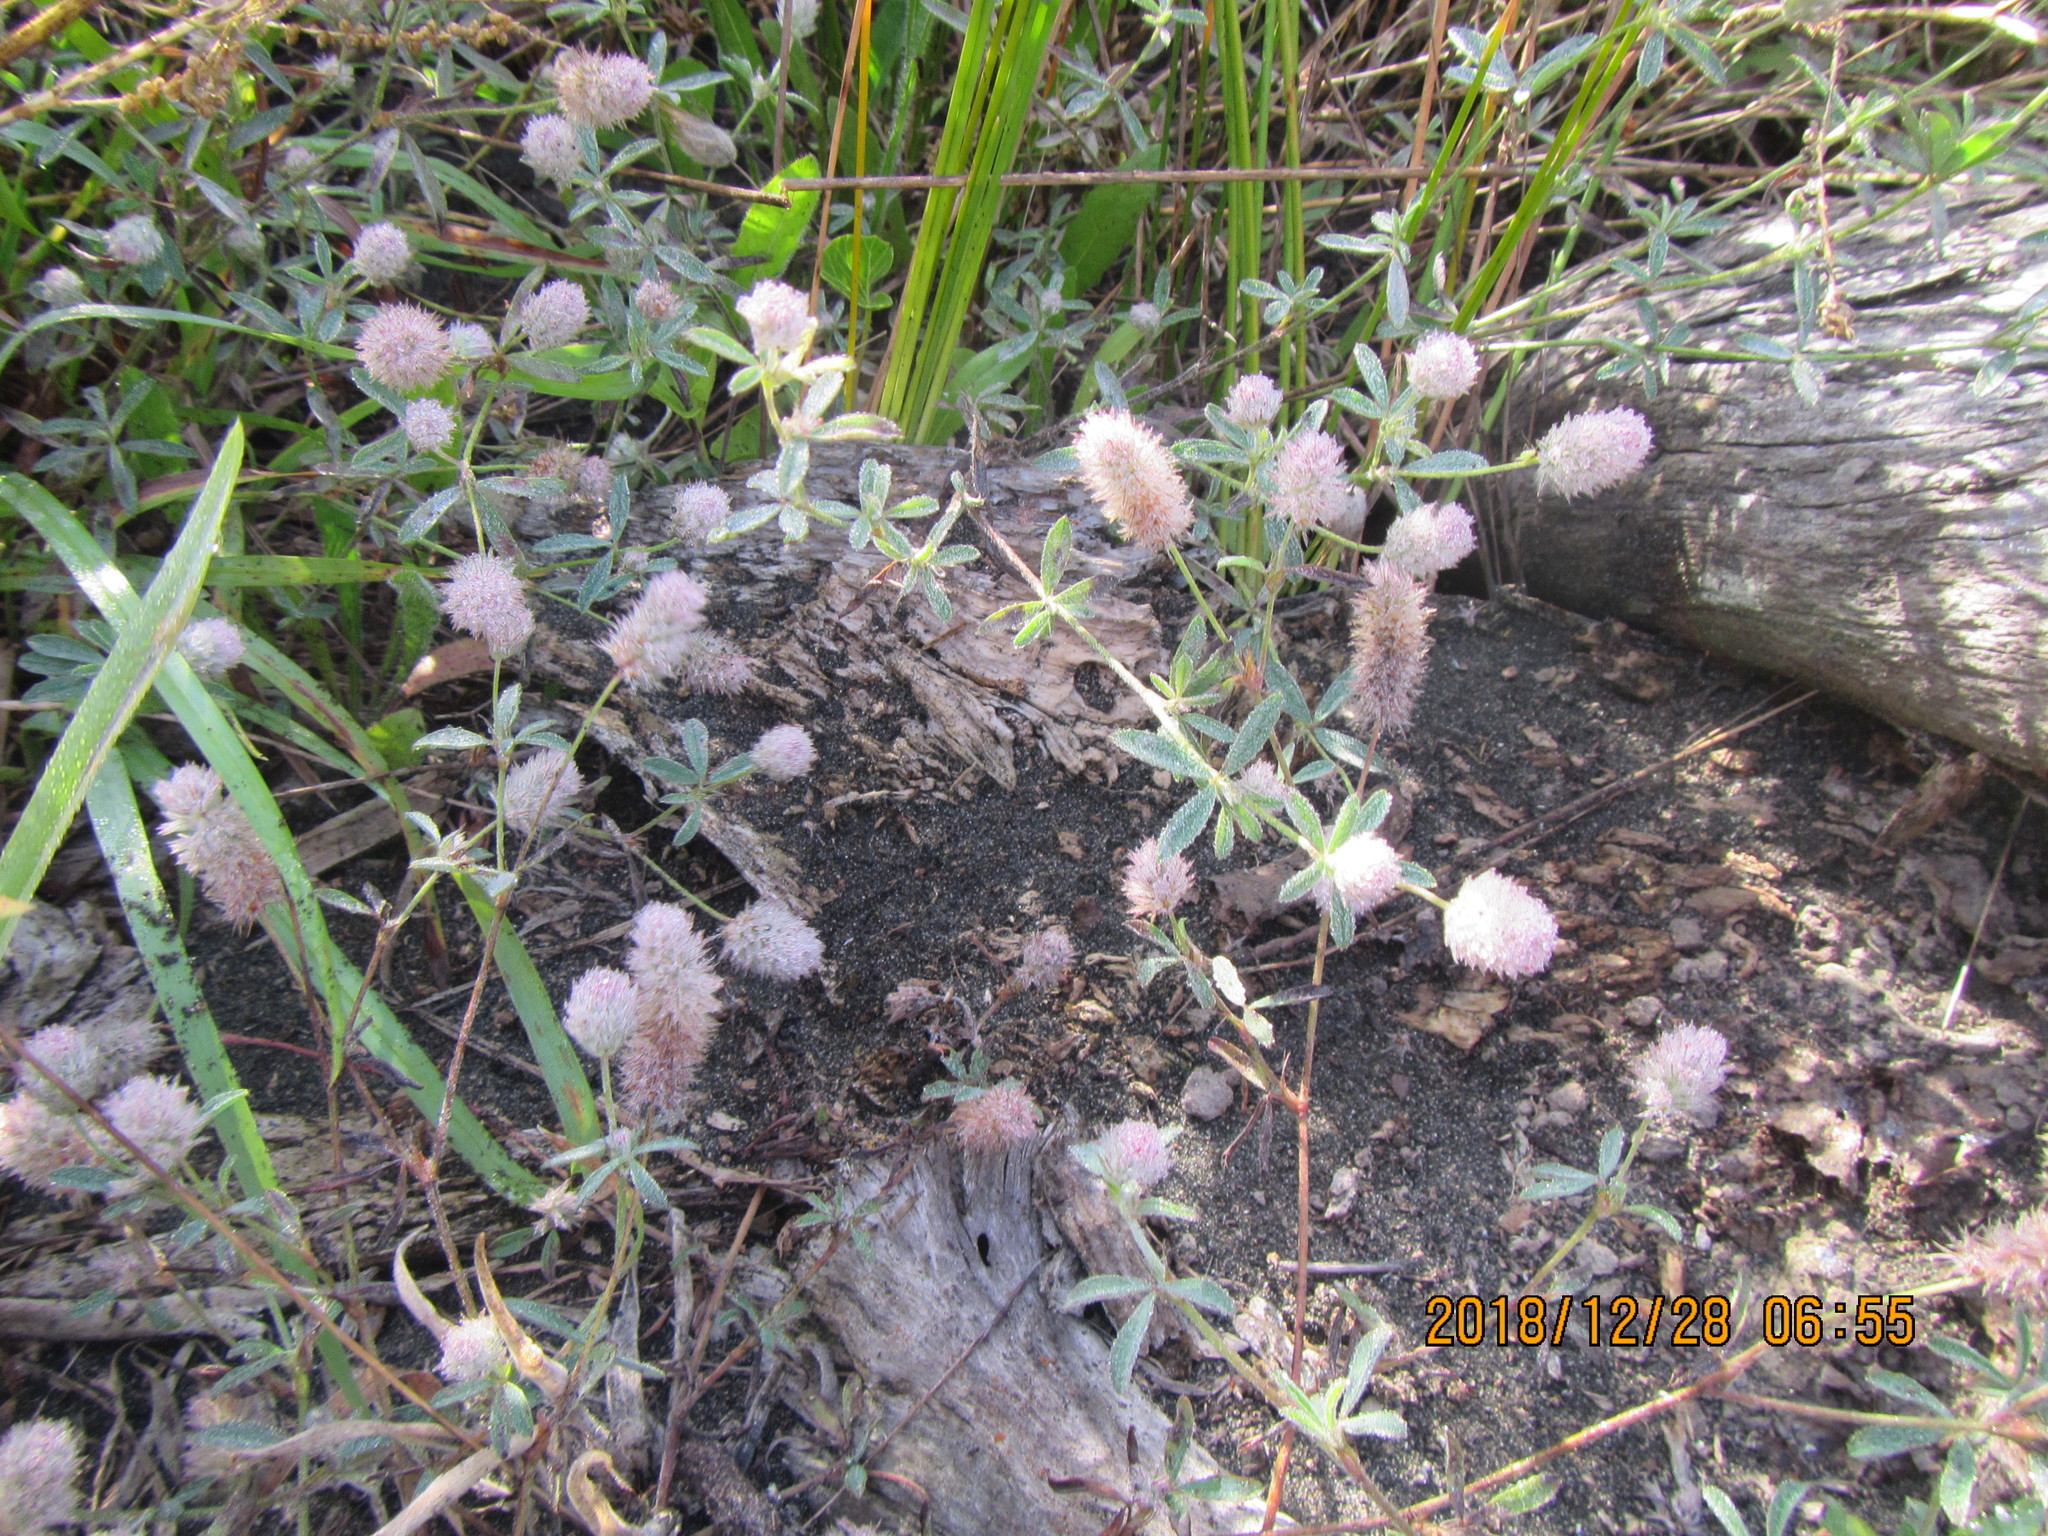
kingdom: Plantae
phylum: Tracheophyta
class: Magnoliopsida
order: Fabales
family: Fabaceae
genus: Trifolium
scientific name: Trifolium arvense
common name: Hare's-foot clover
